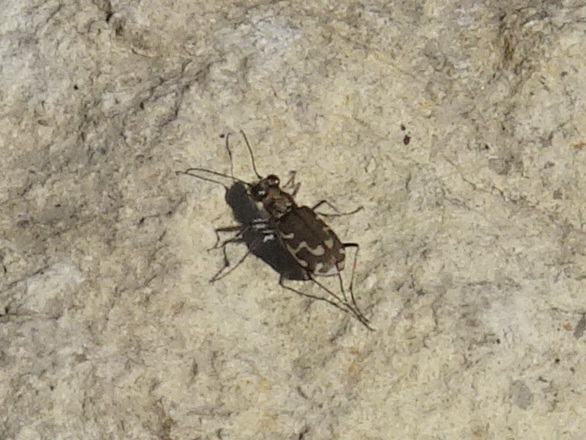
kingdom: Animalia
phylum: Arthropoda
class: Insecta
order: Coleoptera
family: Carabidae
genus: Cicindela
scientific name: Cicindela repanda
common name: Bronzed tiger beetle
